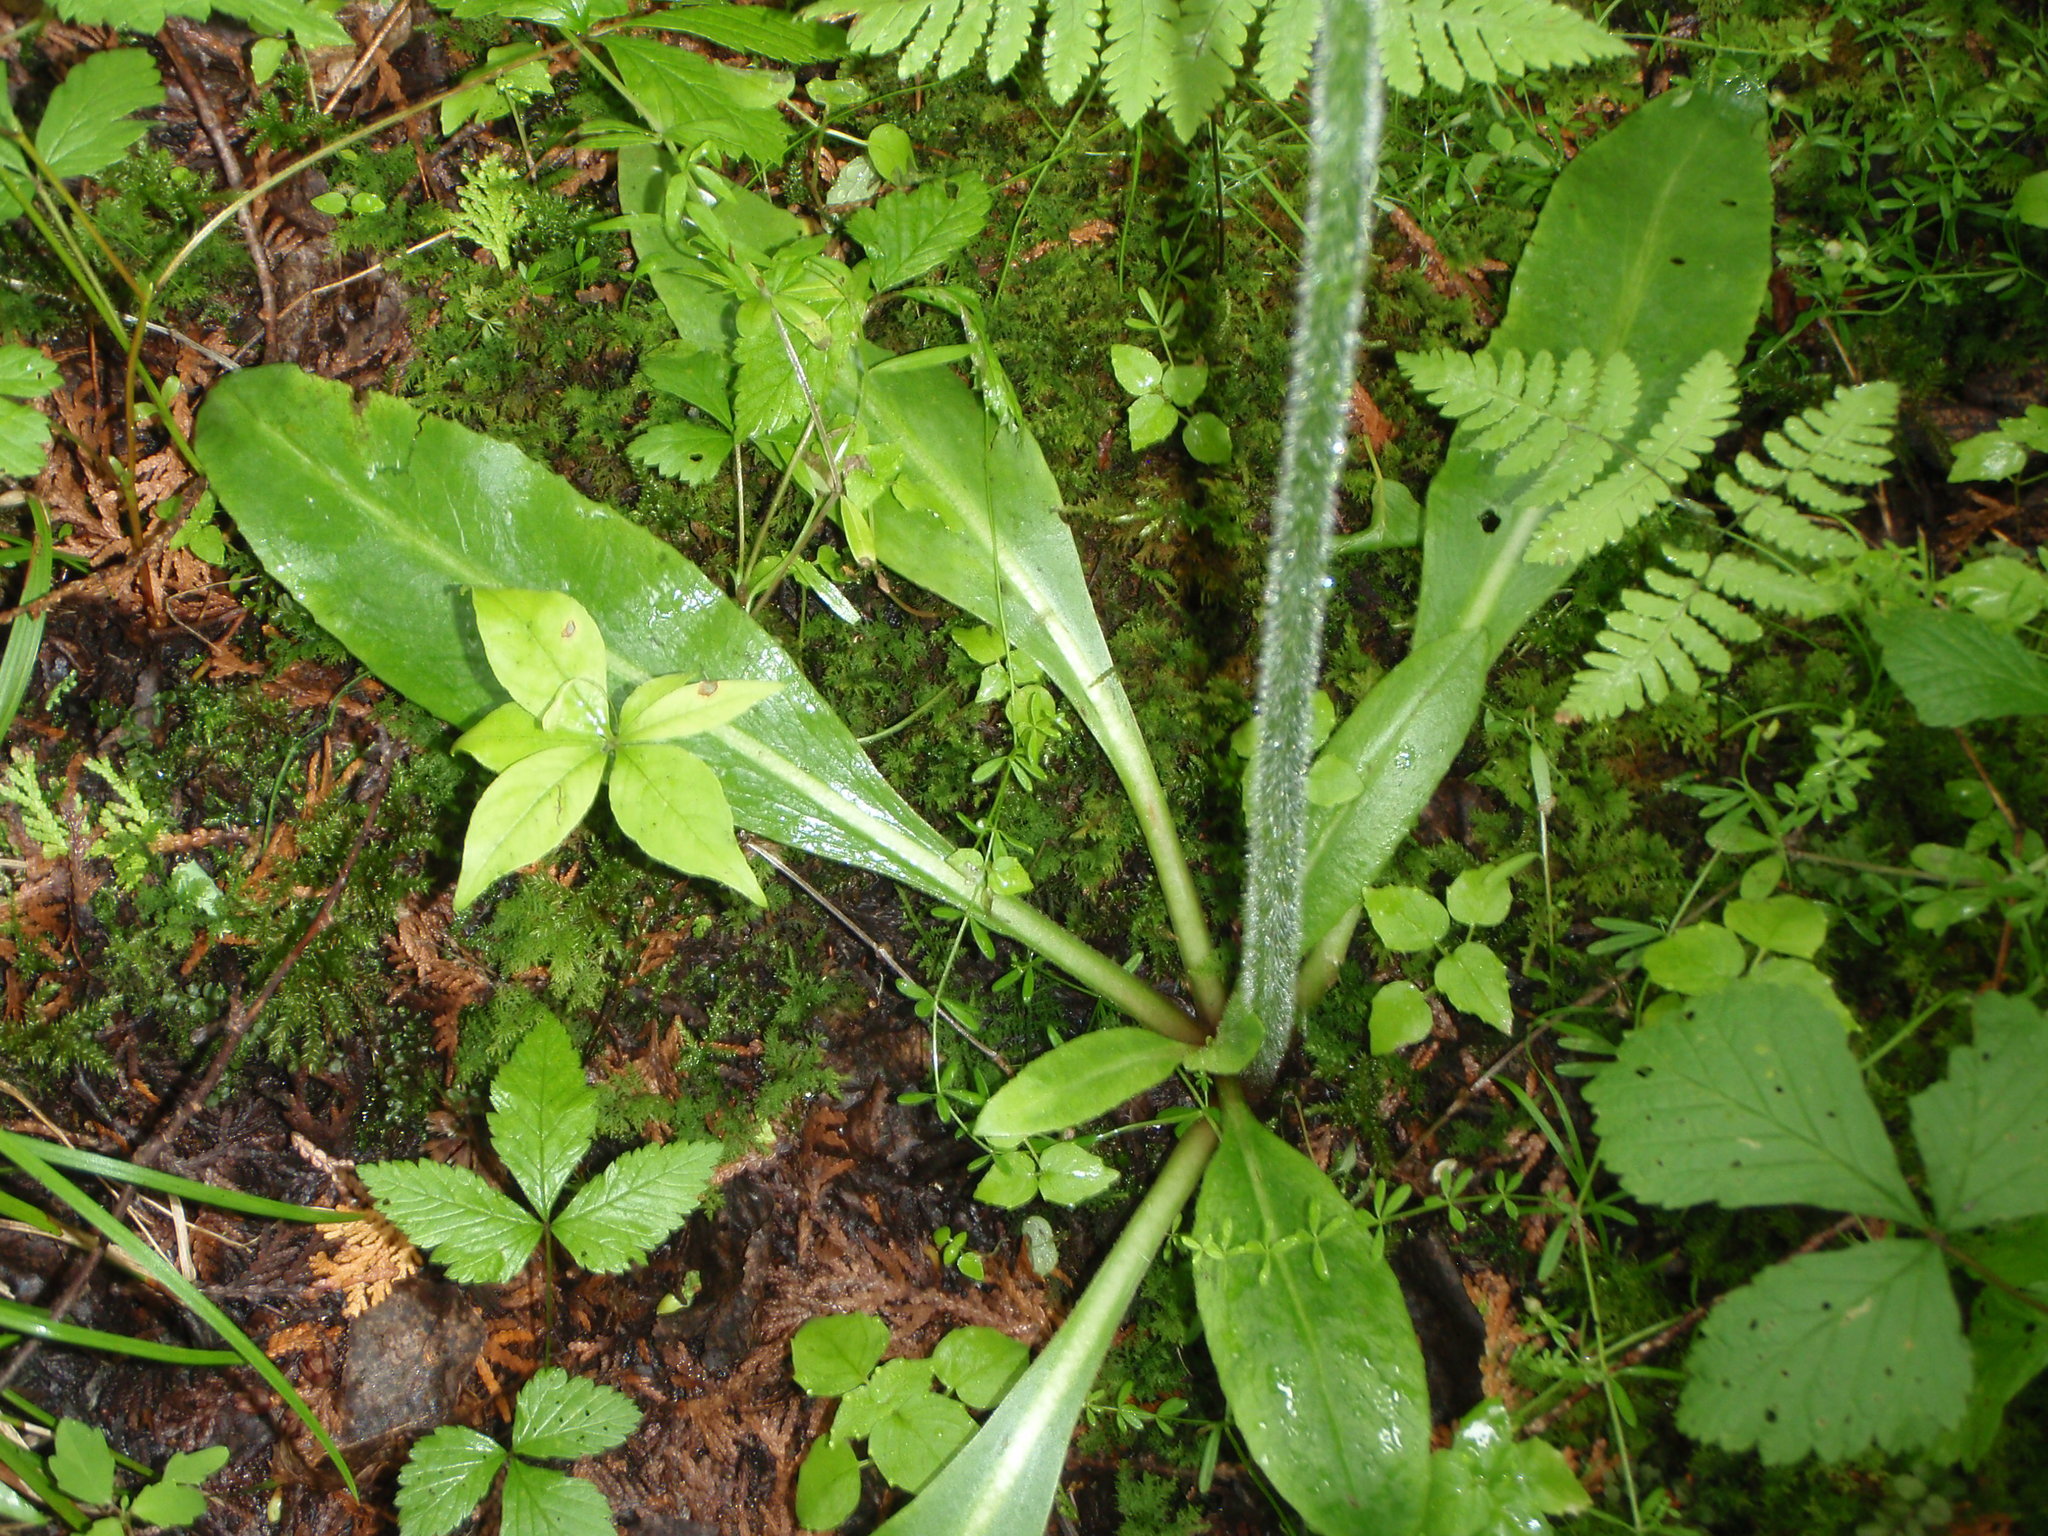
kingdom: Plantae
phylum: Tracheophyta
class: Magnoliopsida
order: Saxifragales
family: Saxifragaceae
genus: Micranthes
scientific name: Micranthes pensylvanica
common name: Marsh saxifrage
